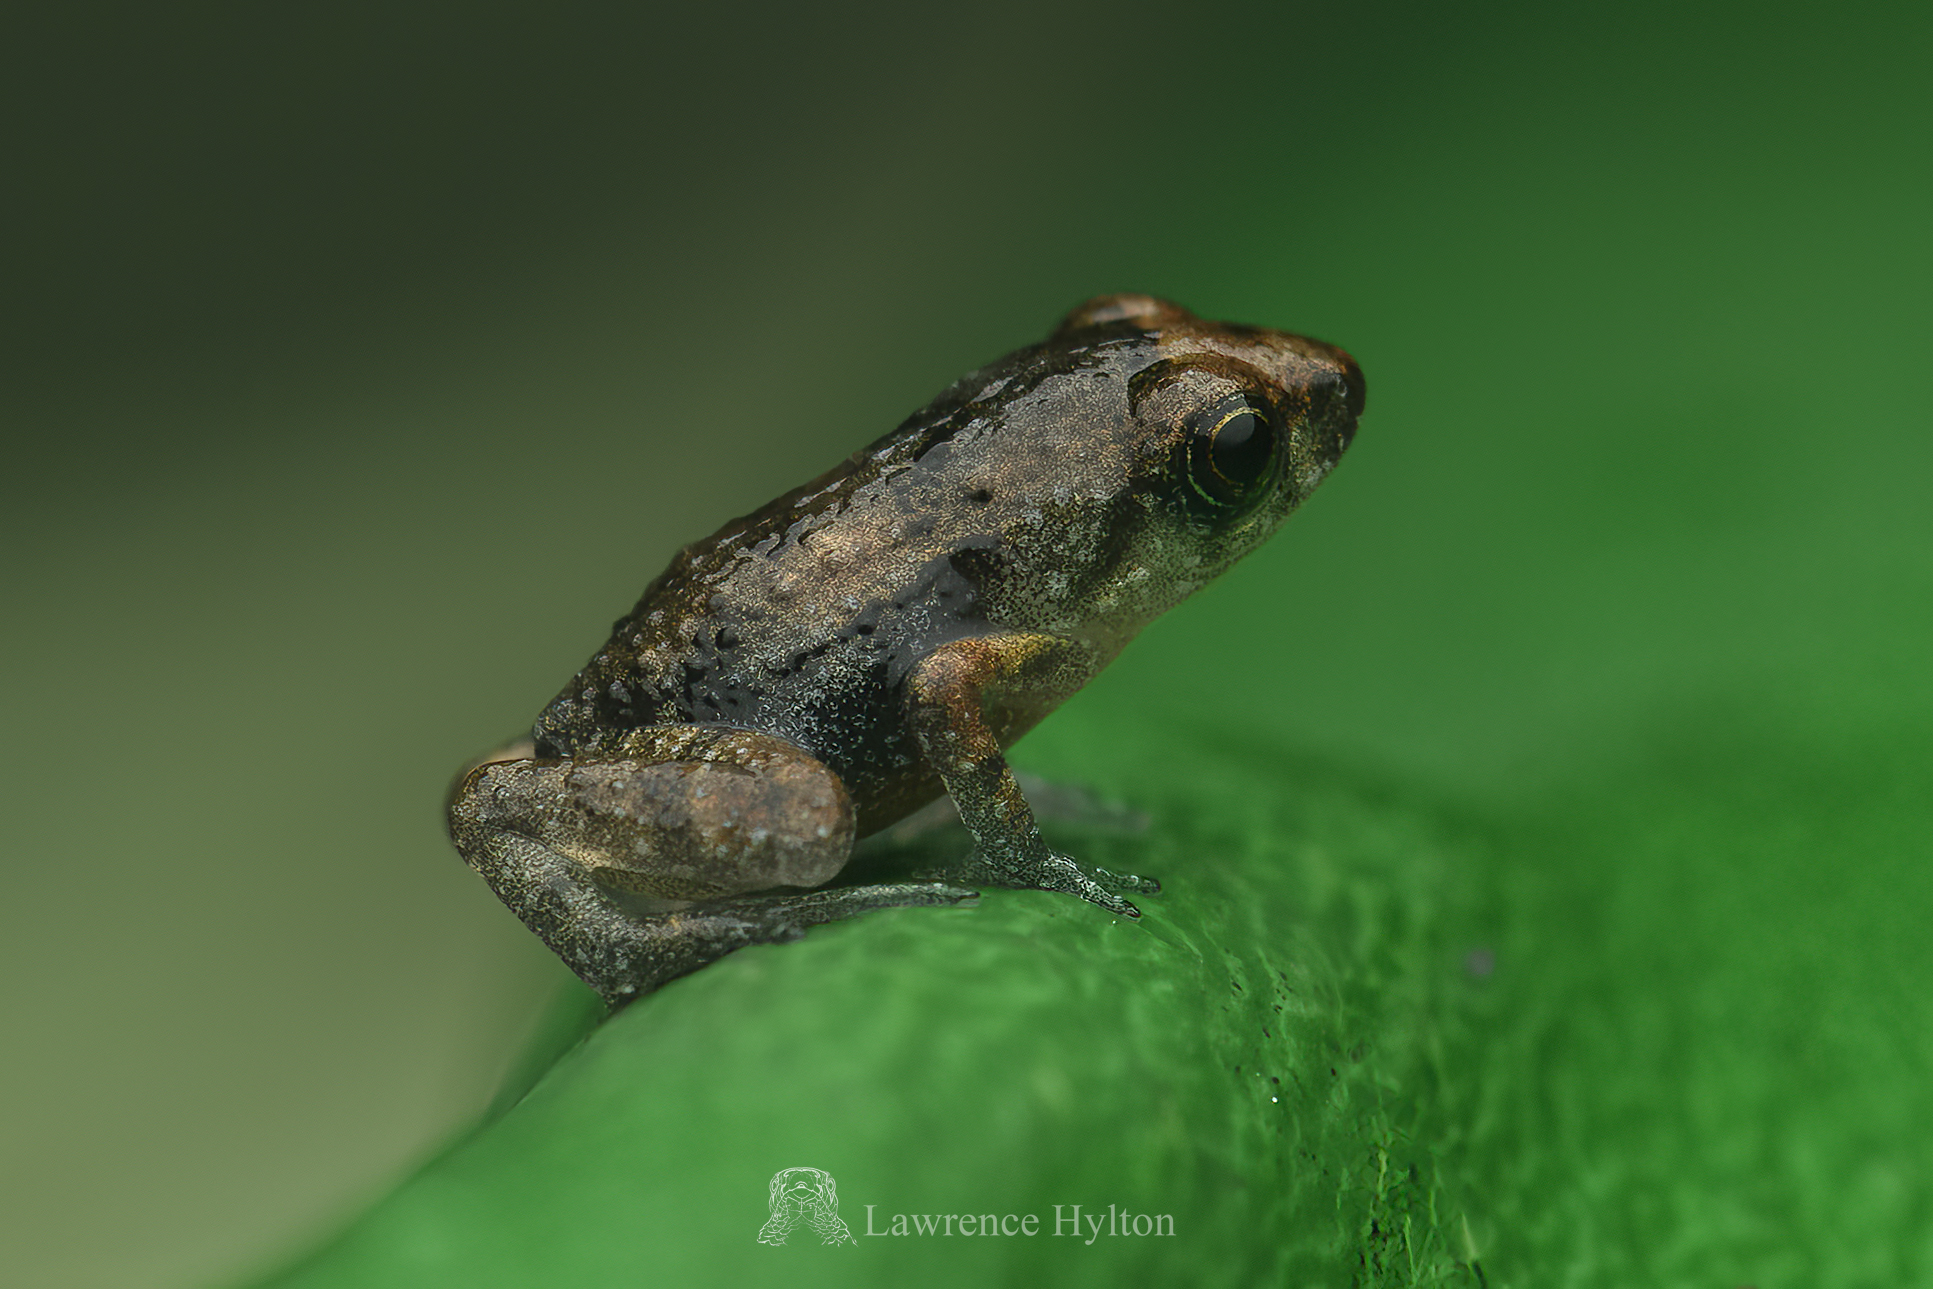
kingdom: Animalia
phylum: Chordata
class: Amphibia
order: Anura
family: Eleutherodactylidae
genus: Eleutherodactylus
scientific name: Eleutherodactylus planirostris
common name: Greenhouse frog
